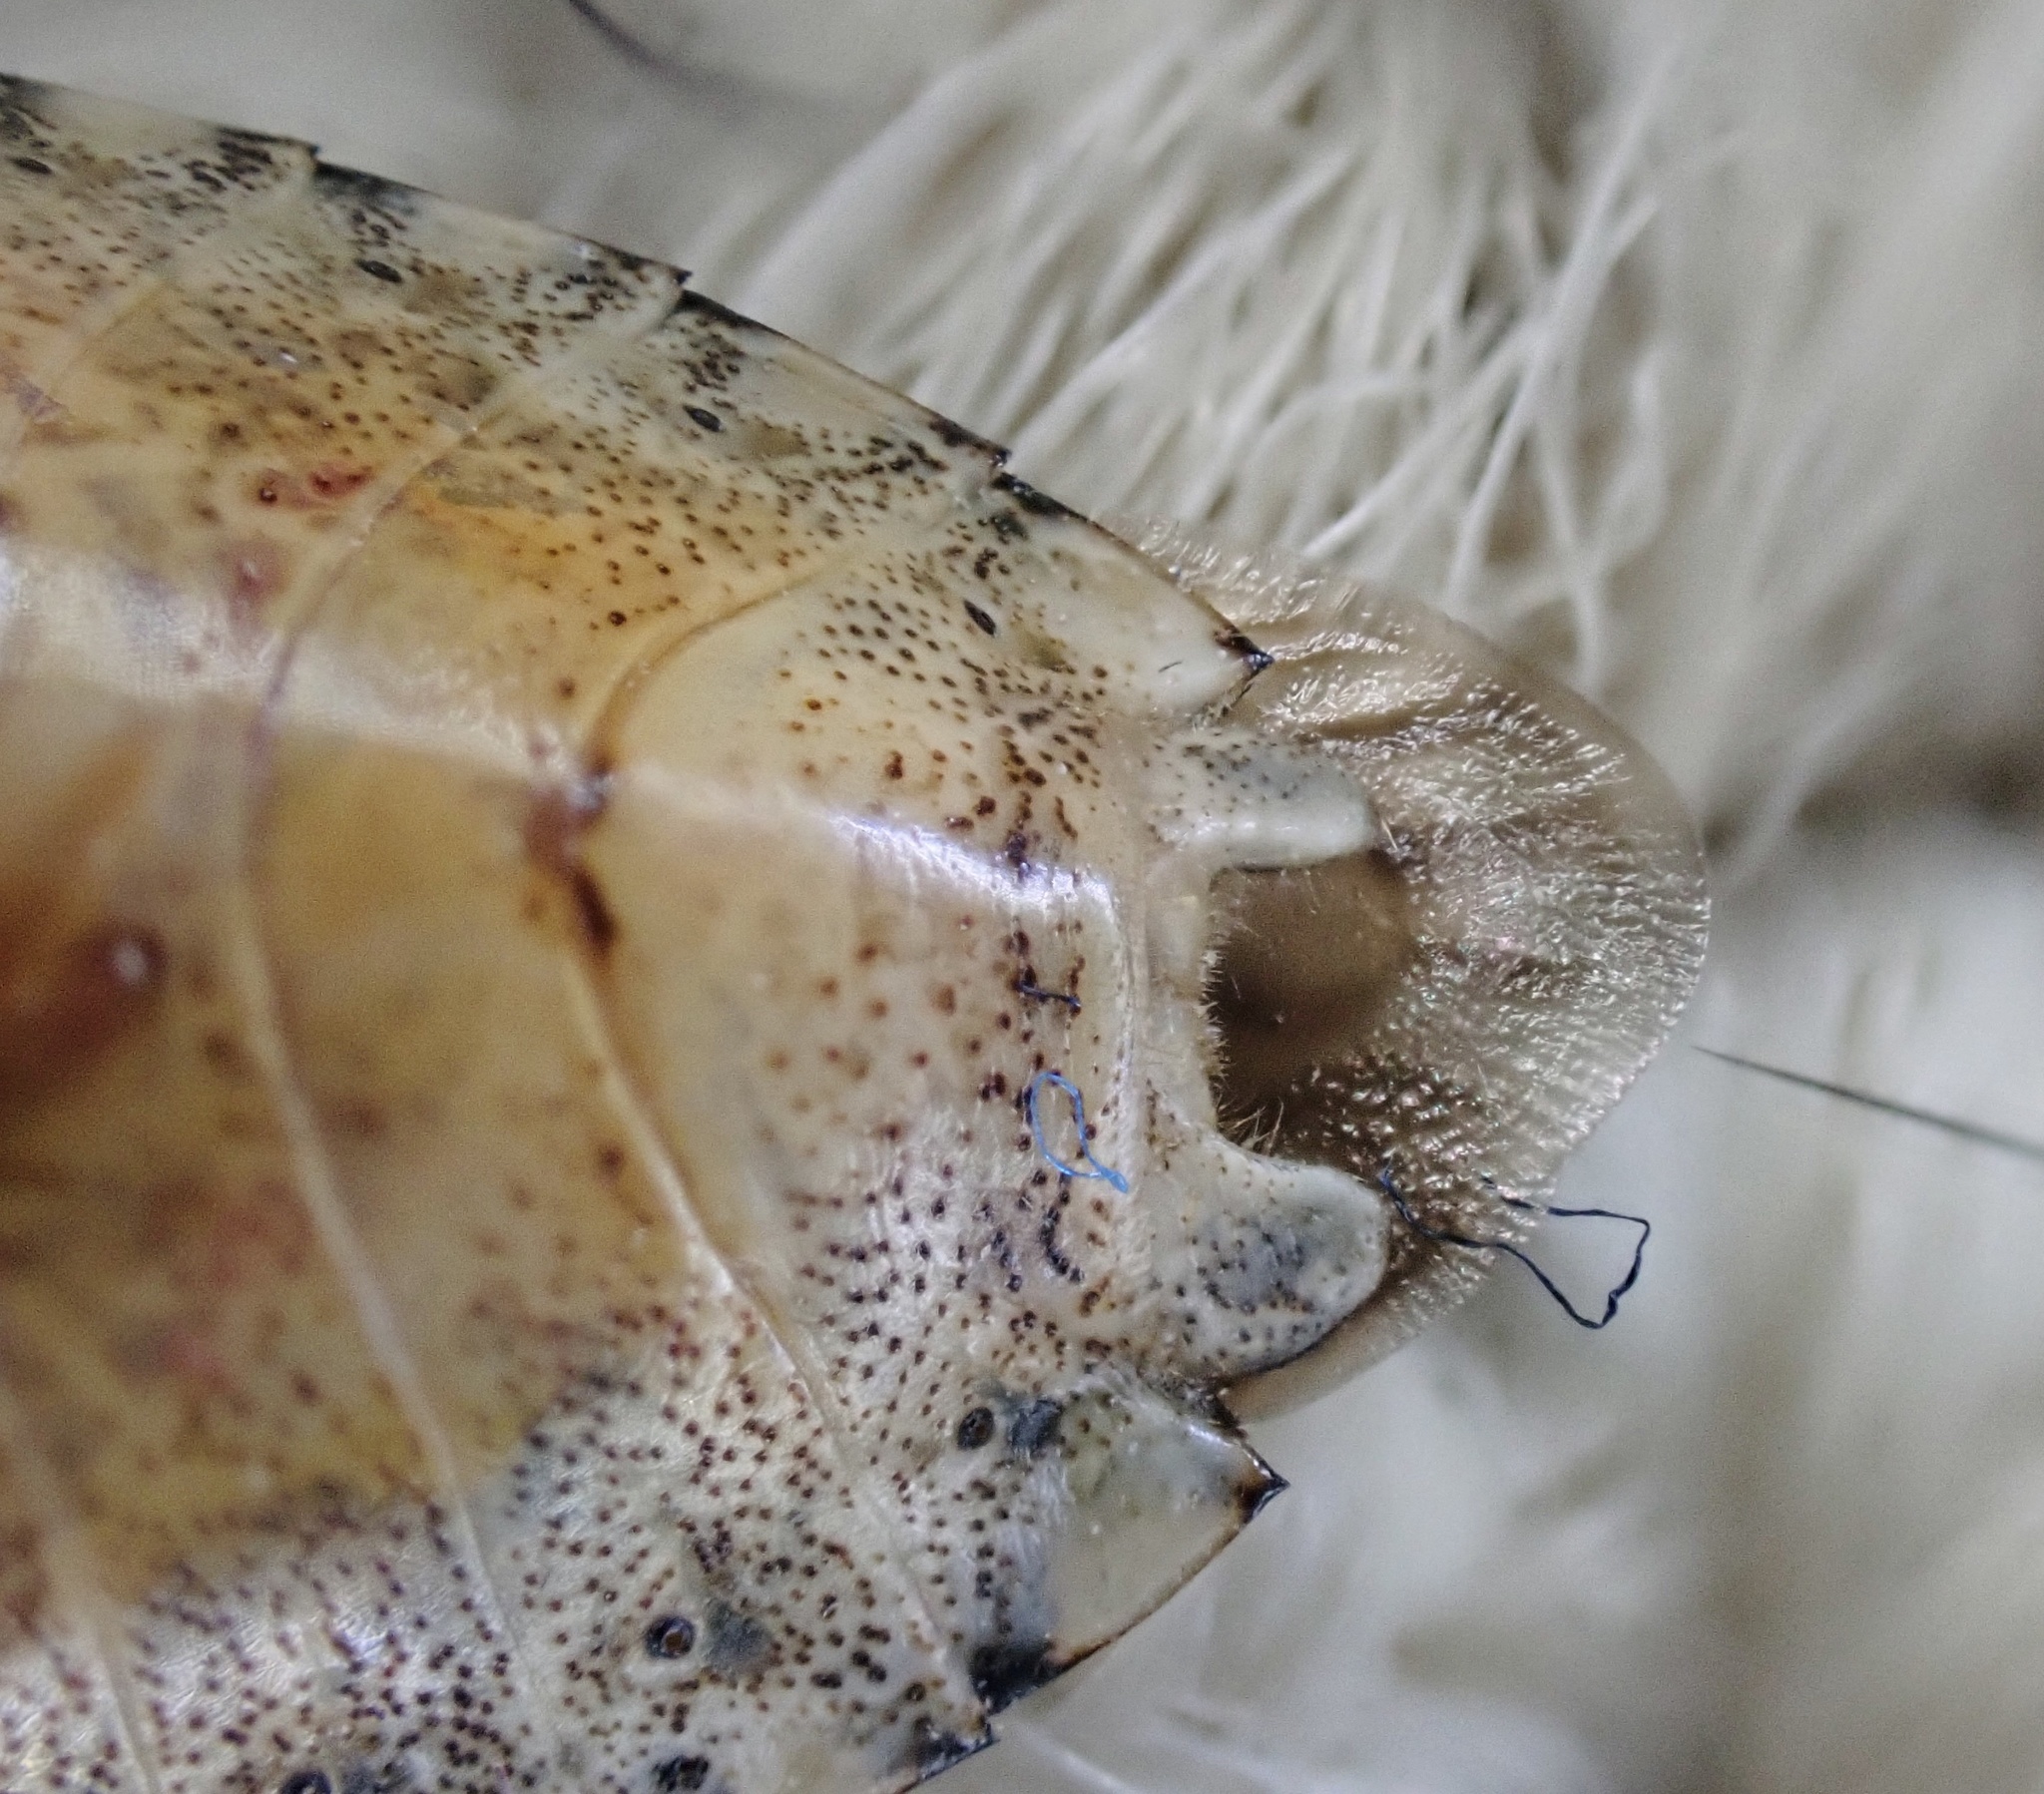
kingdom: Animalia
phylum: Arthropoda
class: Insecta
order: Hemiptera
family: Pentatomidae
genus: Halyomorpha
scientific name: Halyomorpha halys
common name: Brown marmorated stink bug
